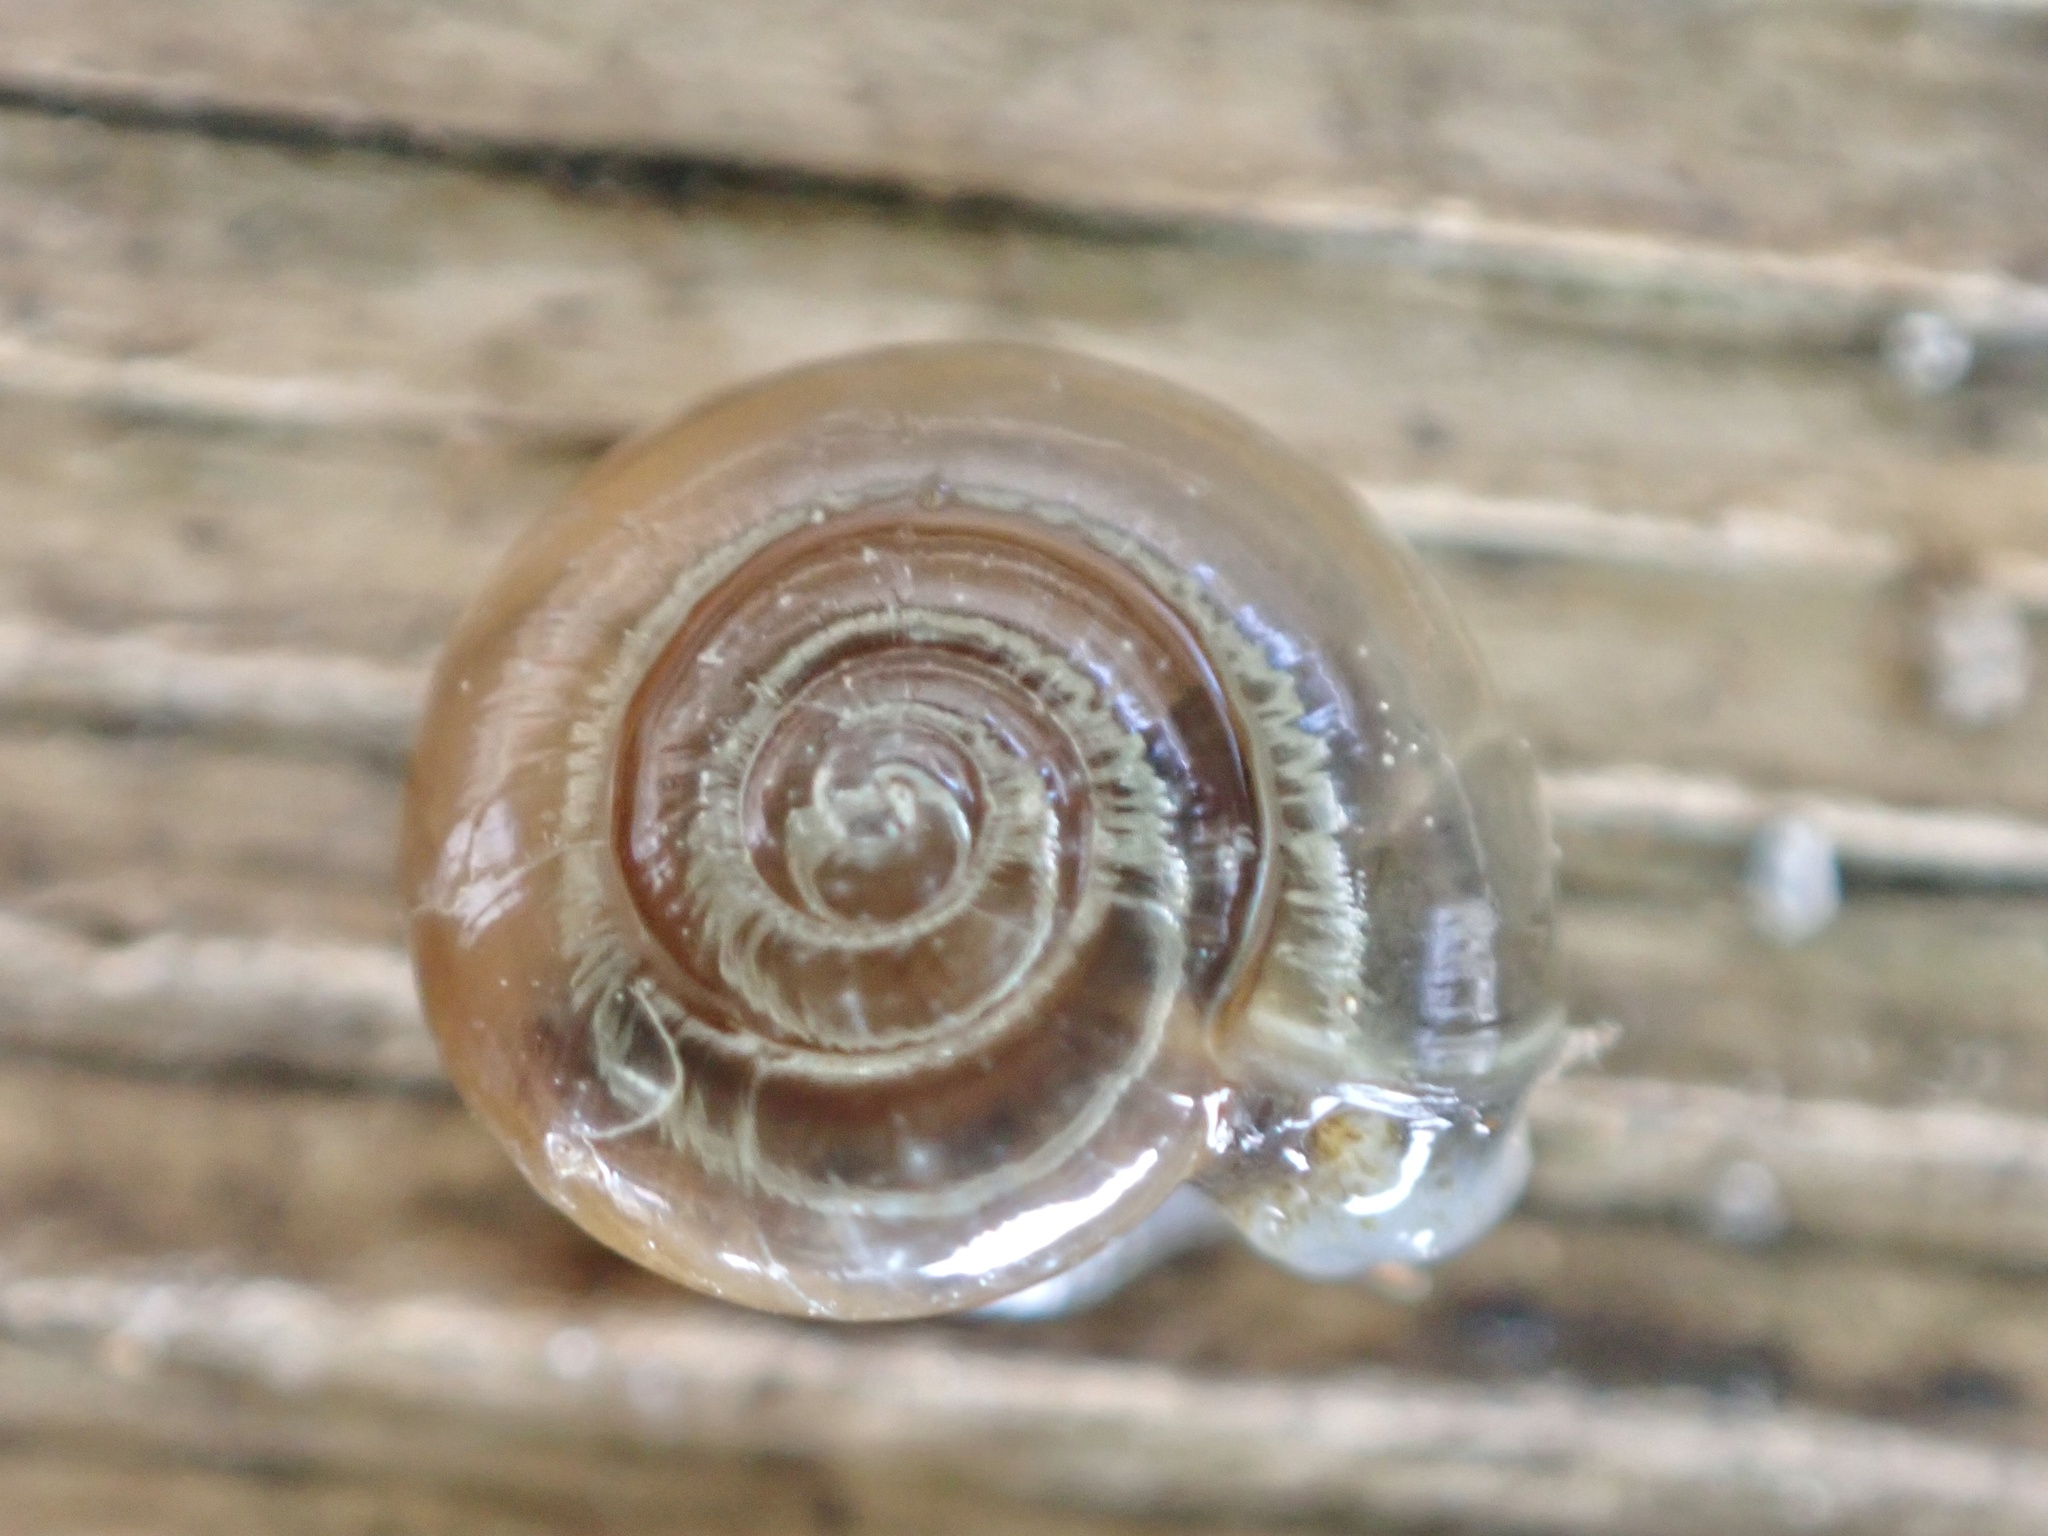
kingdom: Animalia
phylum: Mollusca
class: Gastropoda
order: Stylommatophora
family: Oxychilidae
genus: Oxychilus
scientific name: Oxychilus draparnaudi
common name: Draparnaud's glass snail
